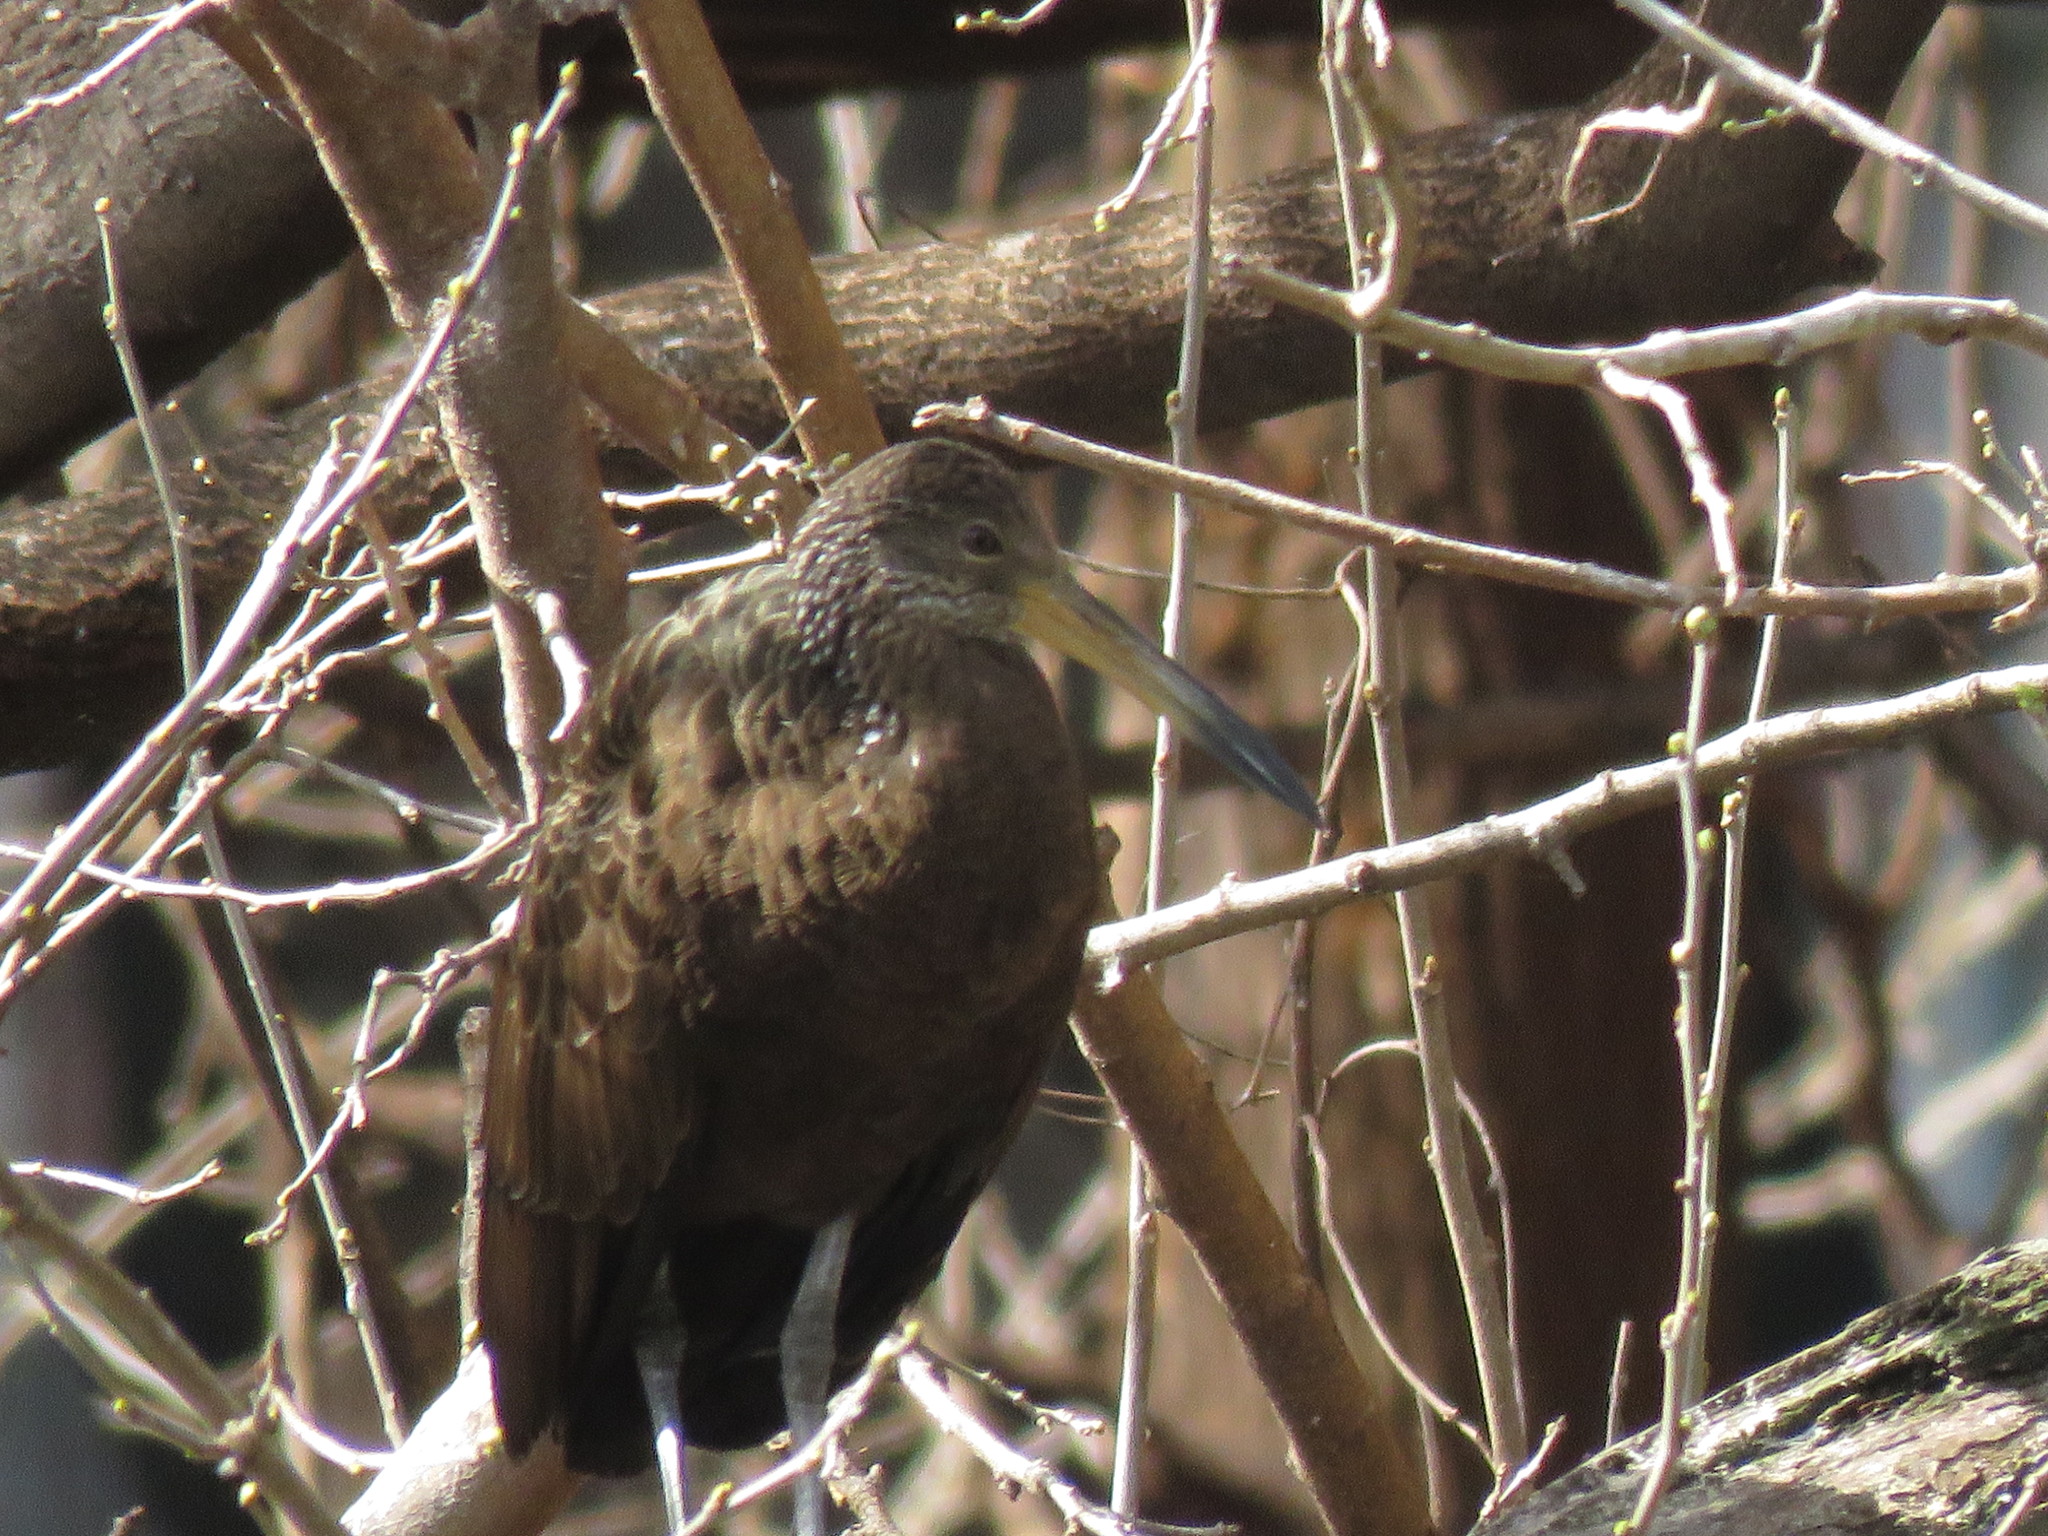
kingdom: Animalia
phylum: Chordata
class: Aves
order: Gruiformes
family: Aramidae
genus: Aramus
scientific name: Aramus guarauna
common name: Limpkin
